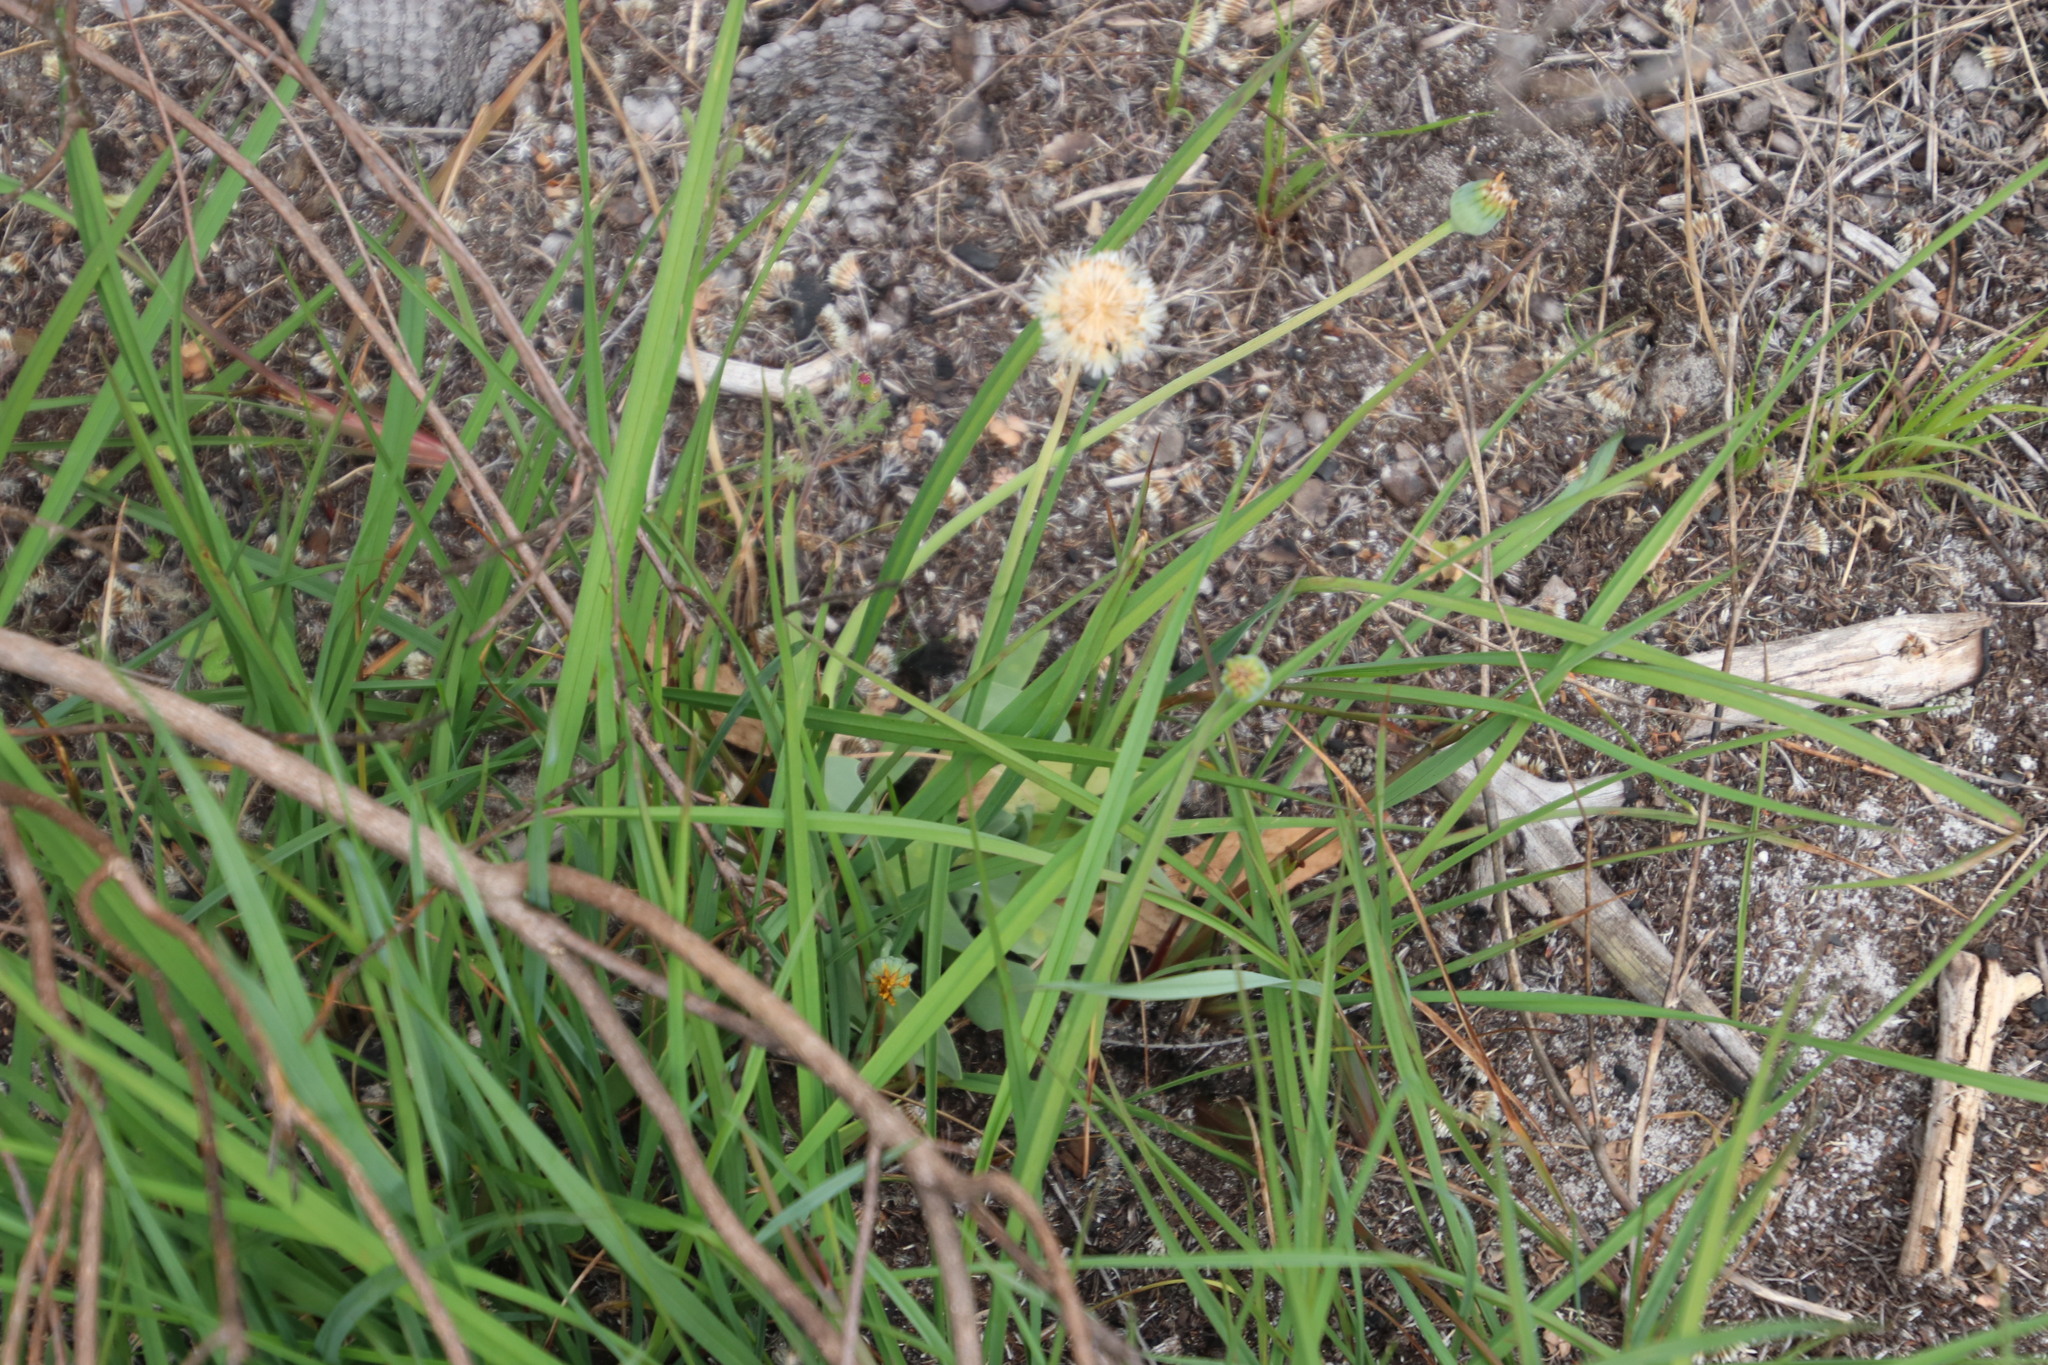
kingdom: Plantae
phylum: Tracheophyta
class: Magnoliopsida
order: Asterales
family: Asteraceae
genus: Othonna
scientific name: Othonna bulbosa
